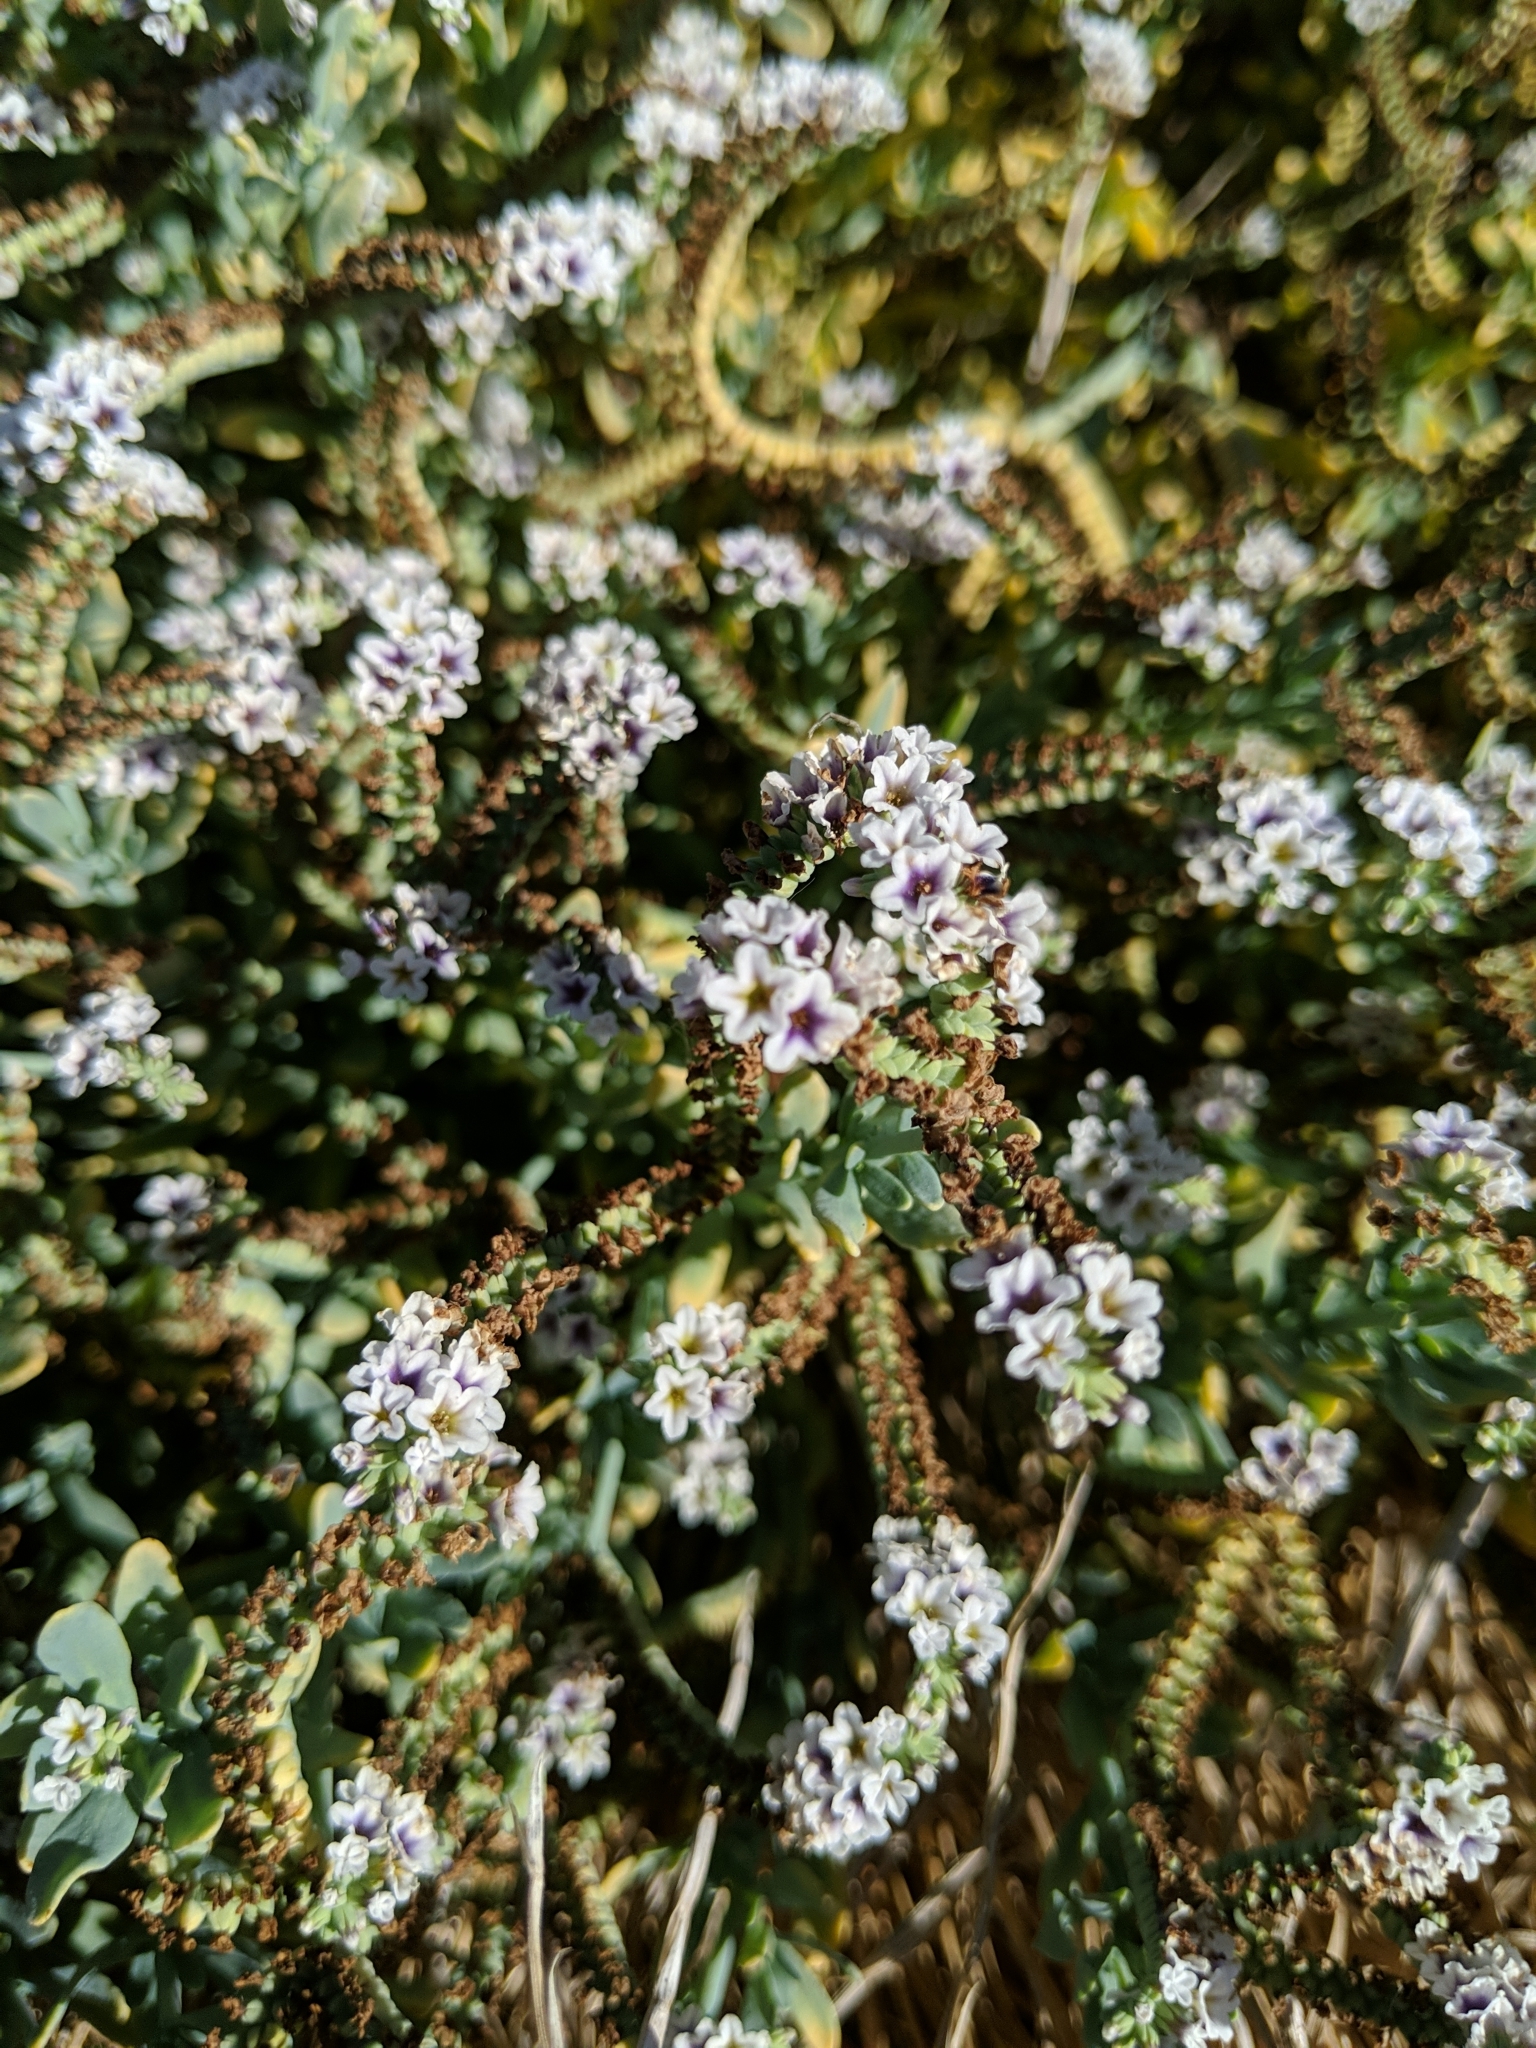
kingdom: Plantae
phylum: Tracheophyta
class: Magnoliopsida
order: Boraginales
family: Heliotropiaceae
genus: Heliotropium
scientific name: Heliotropium curassavicum
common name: Seaside heliotrope
